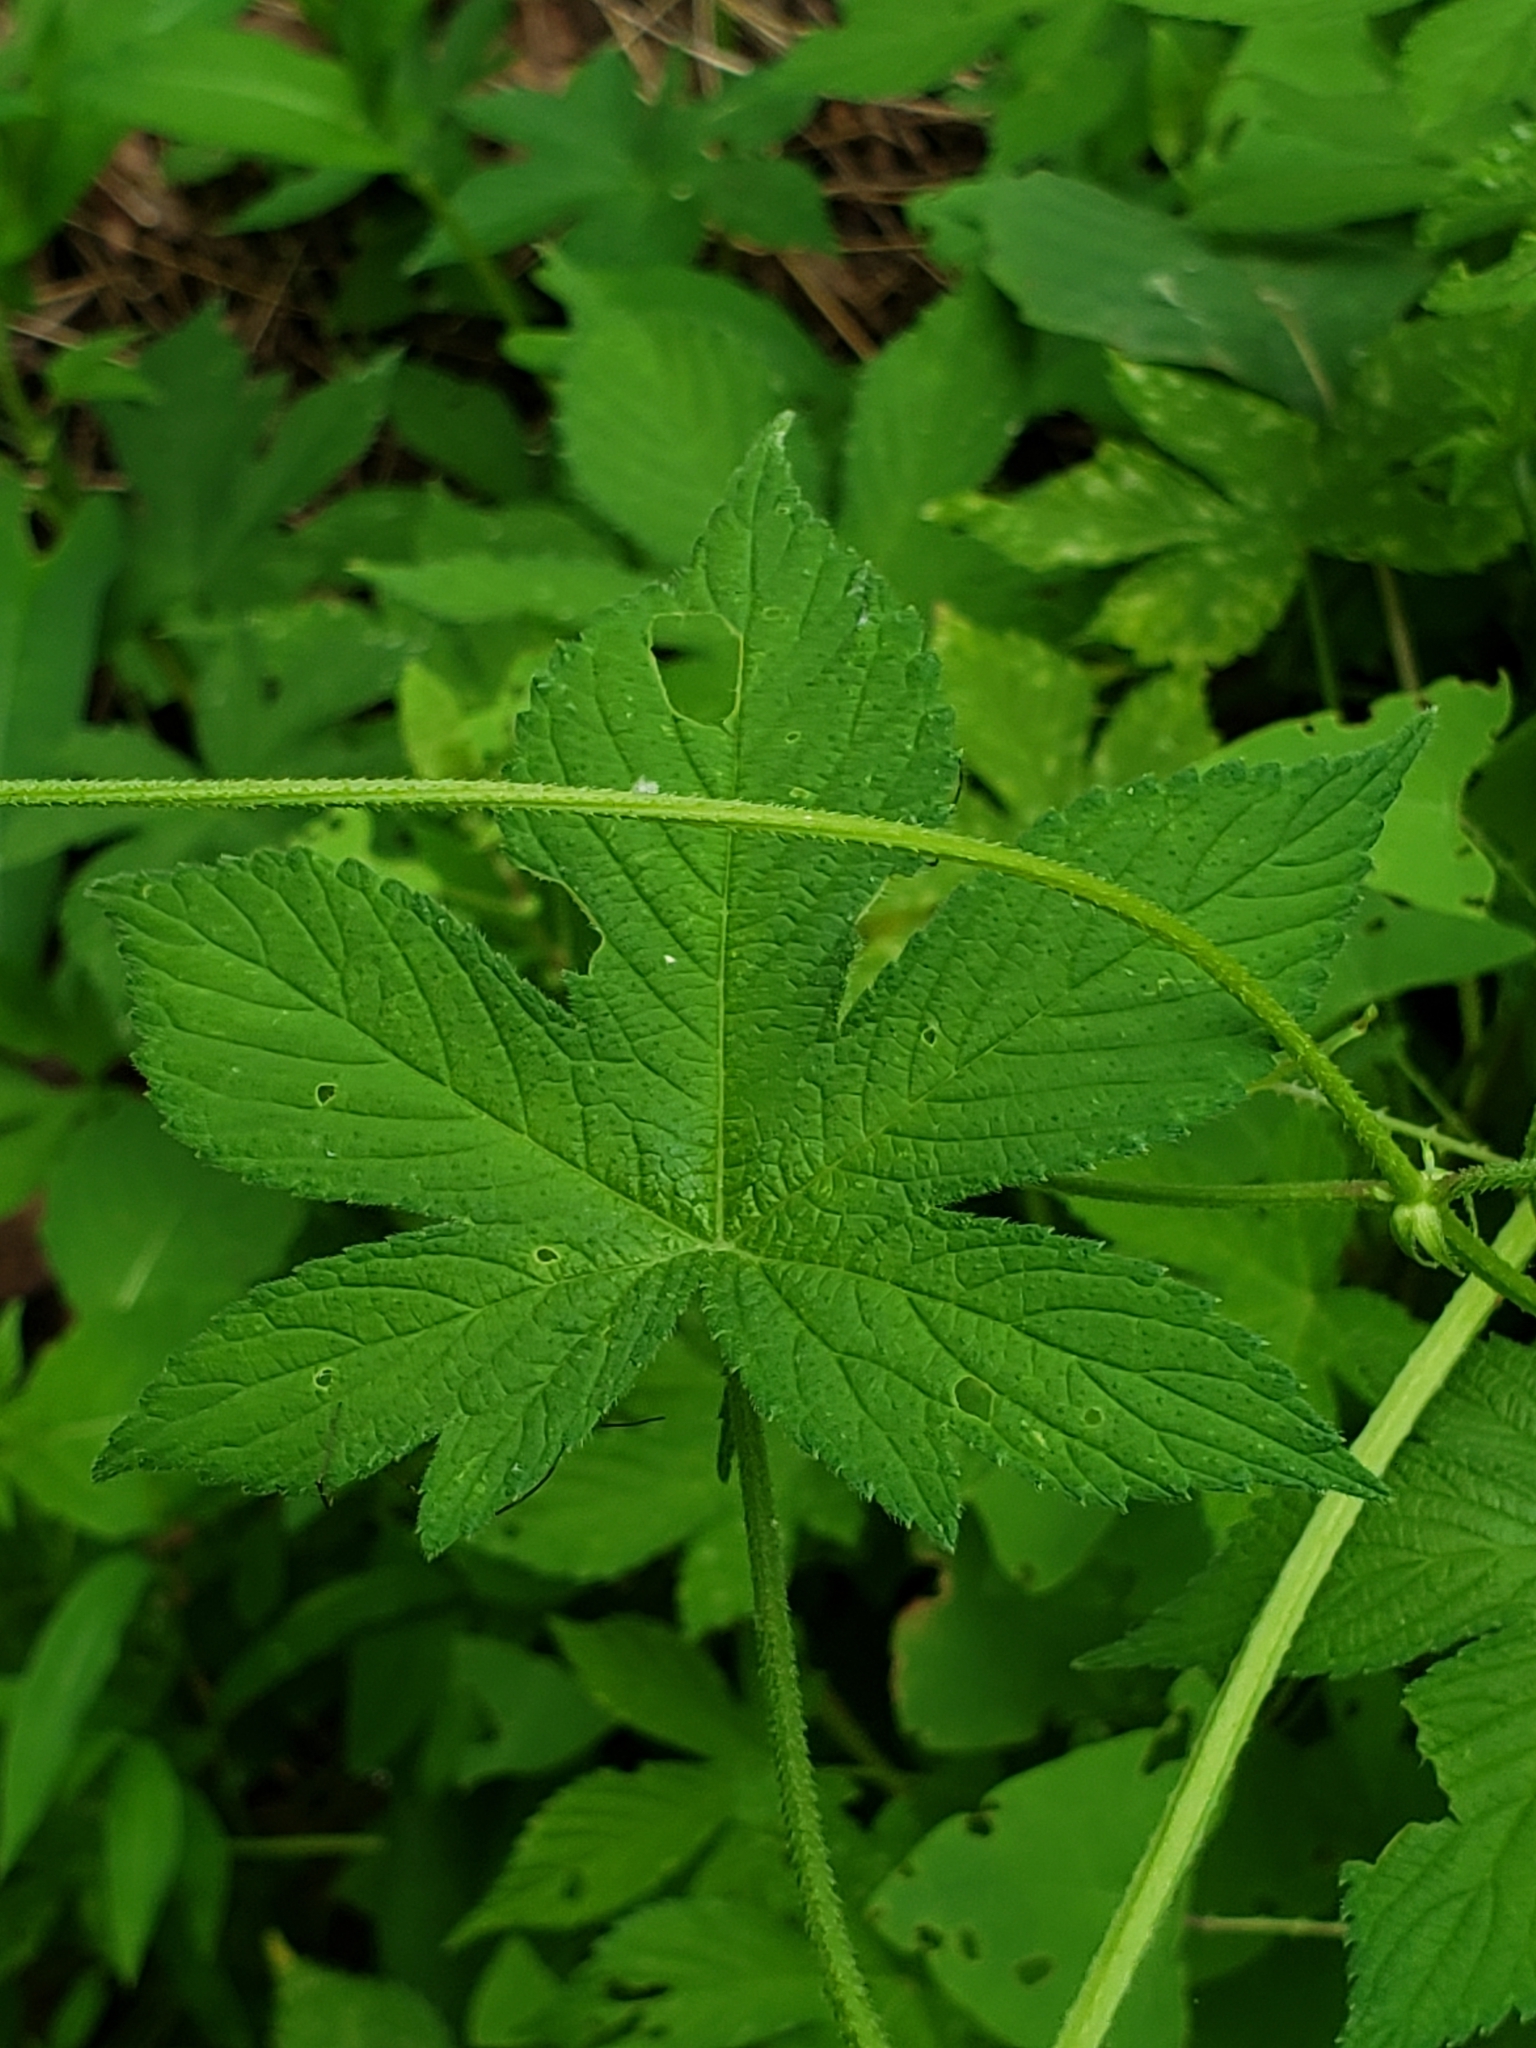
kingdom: Animalia
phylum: Arthropoda
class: Insecta
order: Lepidoptera
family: Tortricidae
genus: Grapholita
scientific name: Grapholita delineana
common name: Eurasian hemp moth
